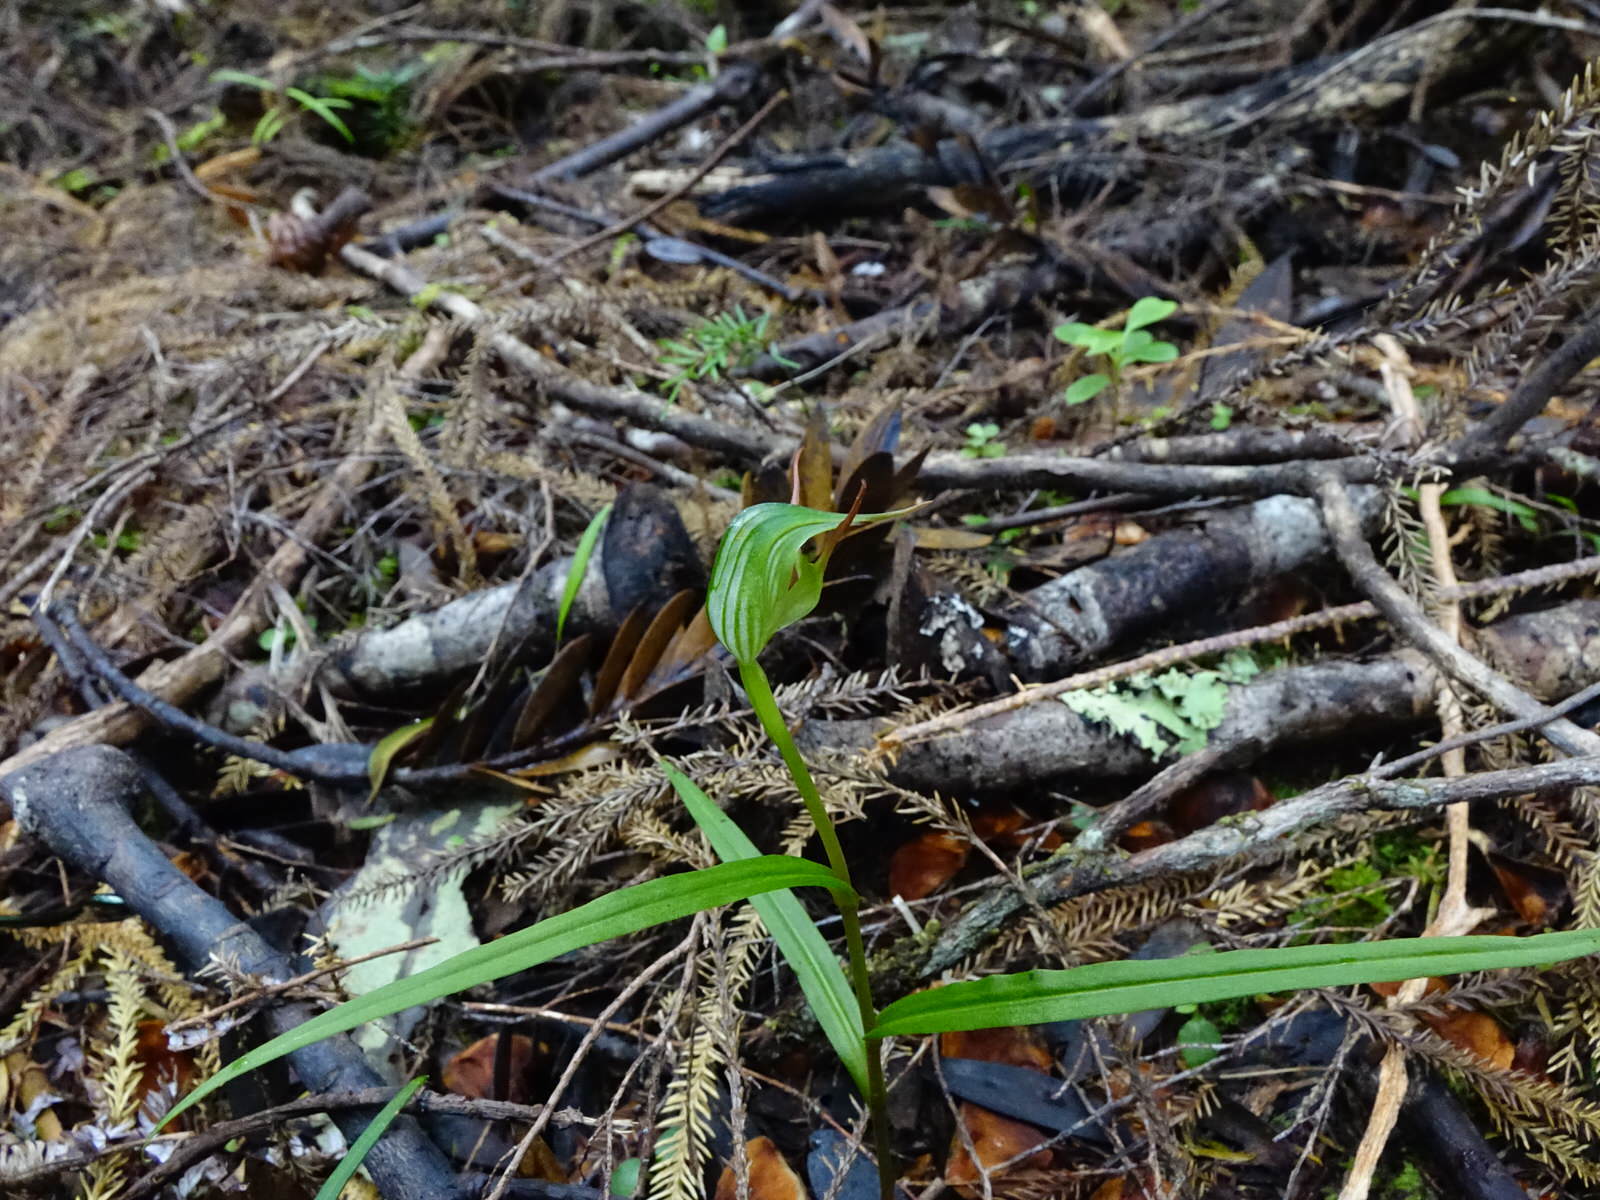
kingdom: Plantae
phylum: Tracheophyta
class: Liliopsida
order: Asparagales
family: Orchidaceae
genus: Pterostylis
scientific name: Pterostylis agathicola
